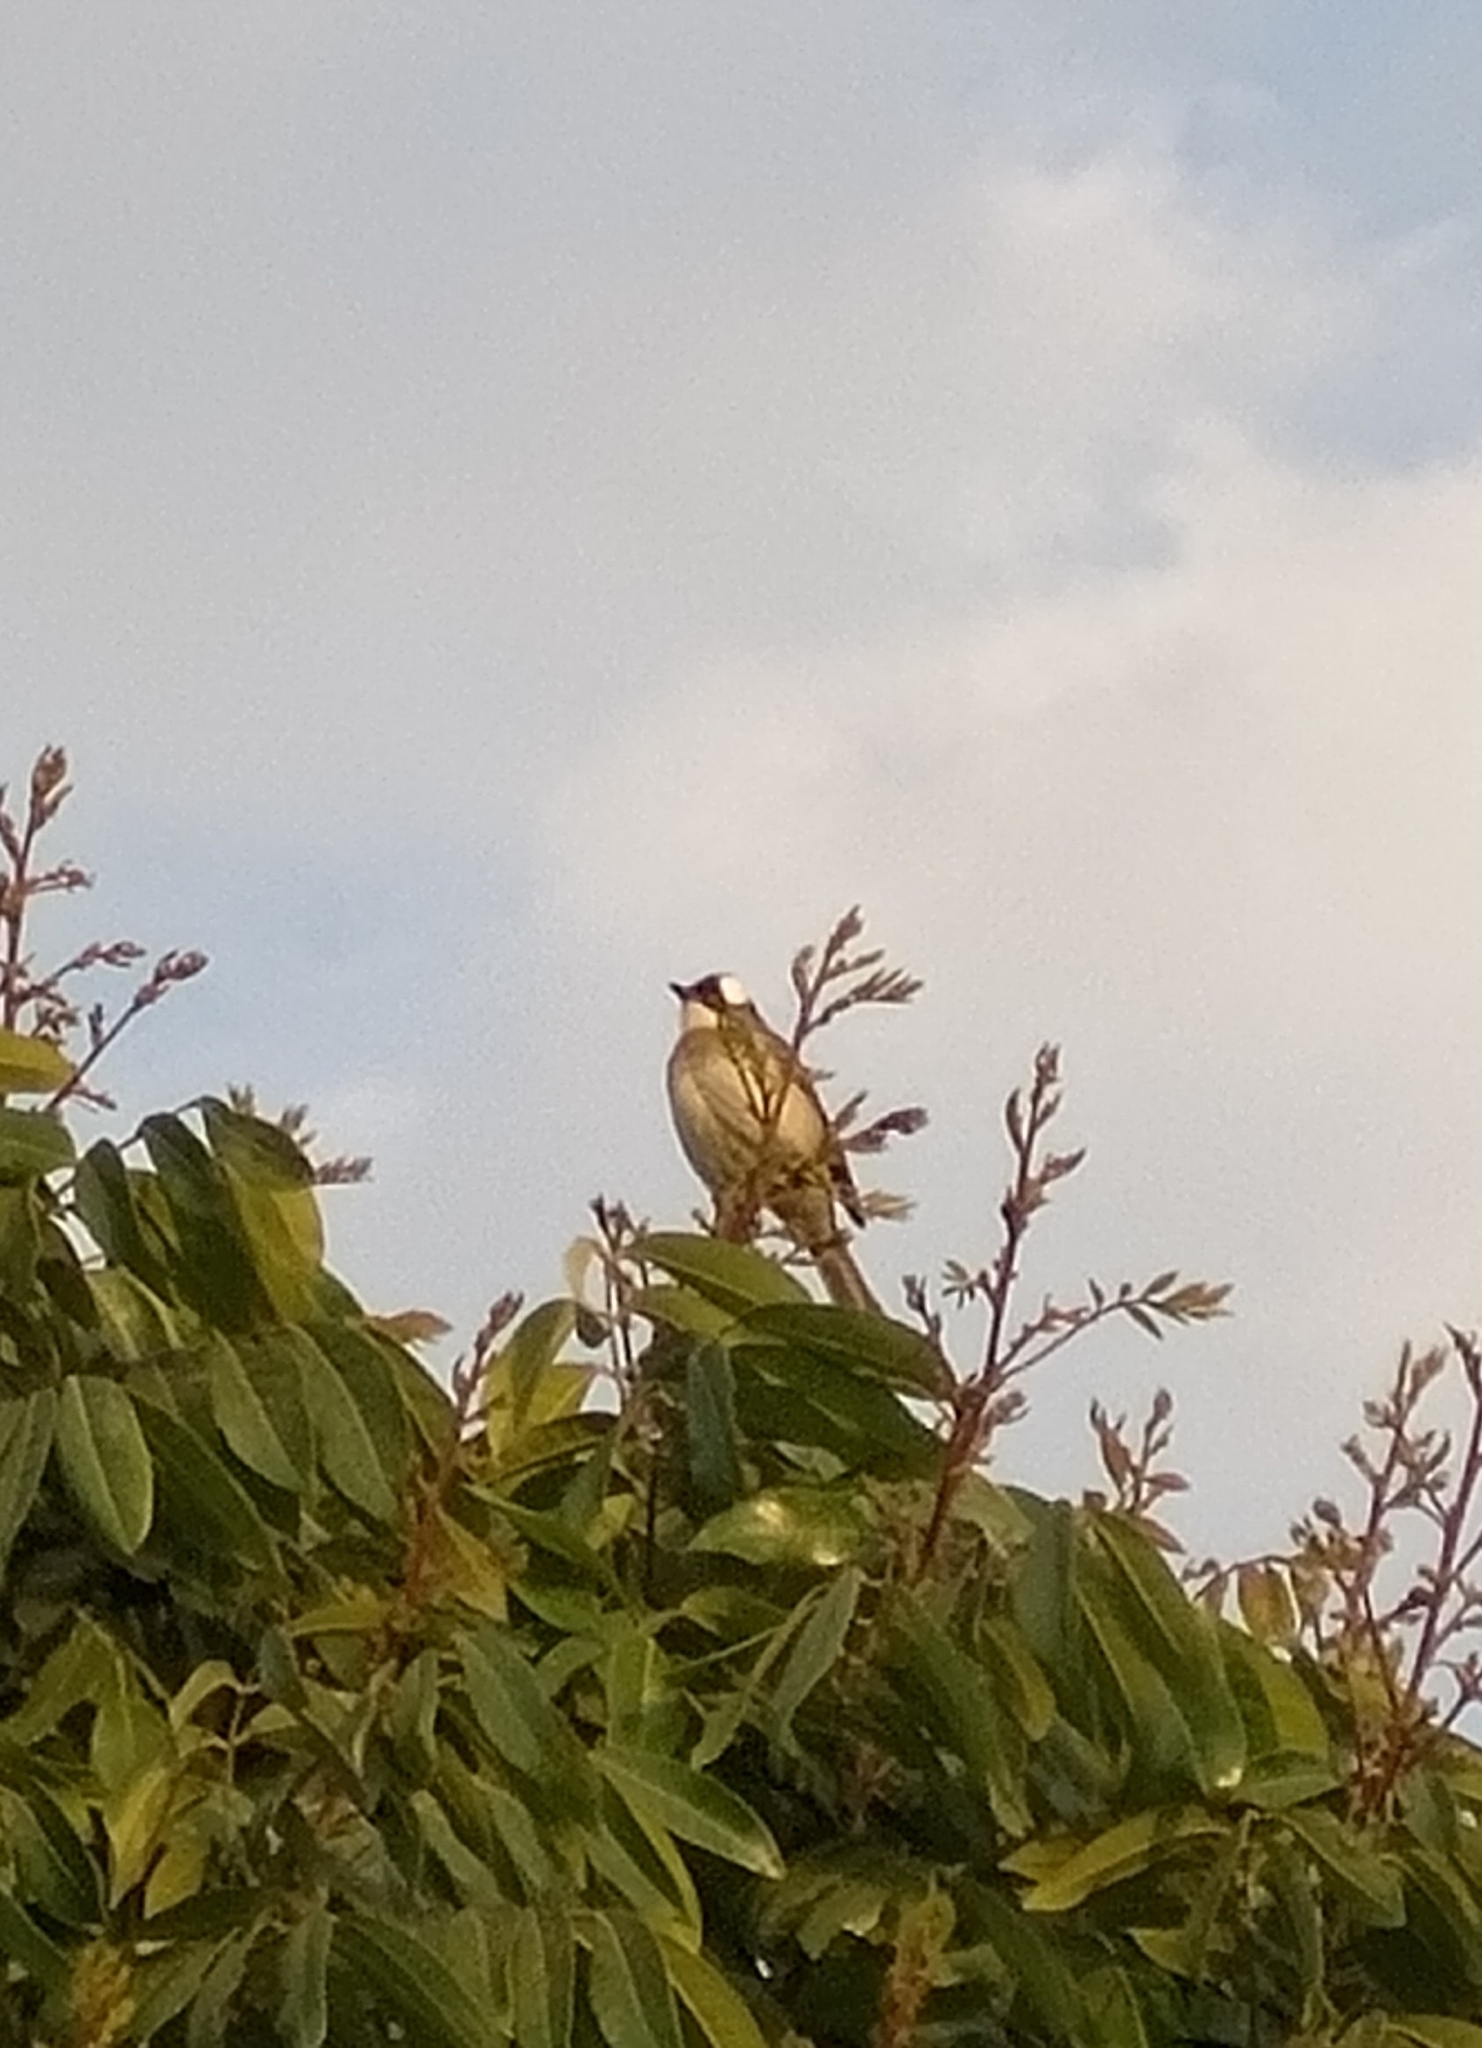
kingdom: Animalia
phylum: Chordata
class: Aves
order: Passeriformes
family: Pycnonotidae
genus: Pycnonotus
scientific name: Pycnonotus sinensis
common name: Light-vented bulbul
